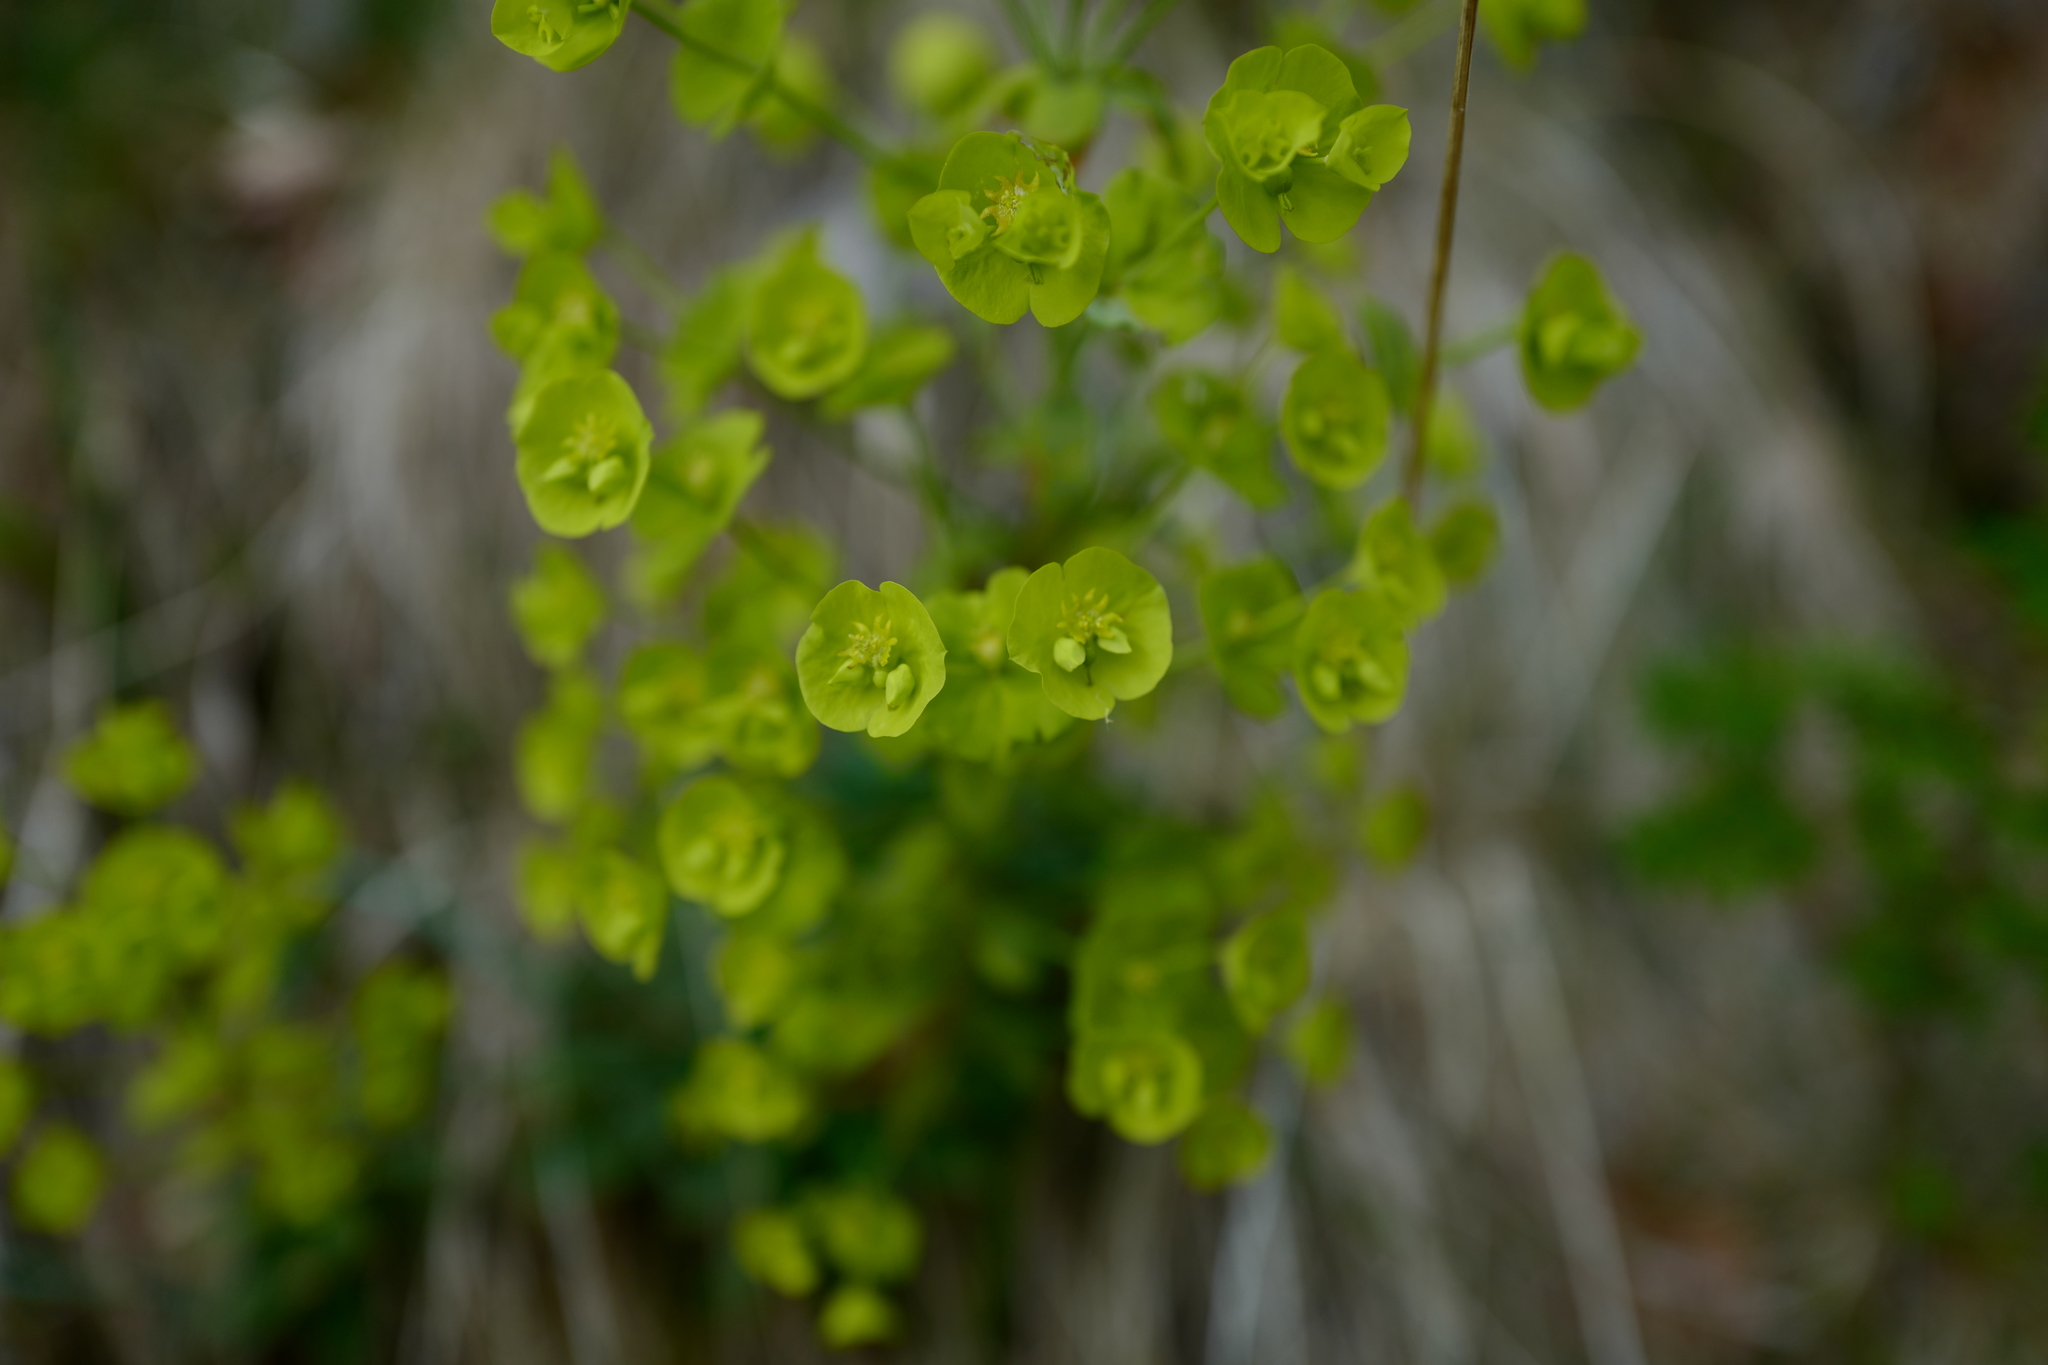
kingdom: Plantae
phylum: Tracheophyta
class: Magnoliopsida
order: Malpighiales
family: Euphorbiaceae
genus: Euphorbia
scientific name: Euphorbia amygdaloides
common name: Wood spurge
